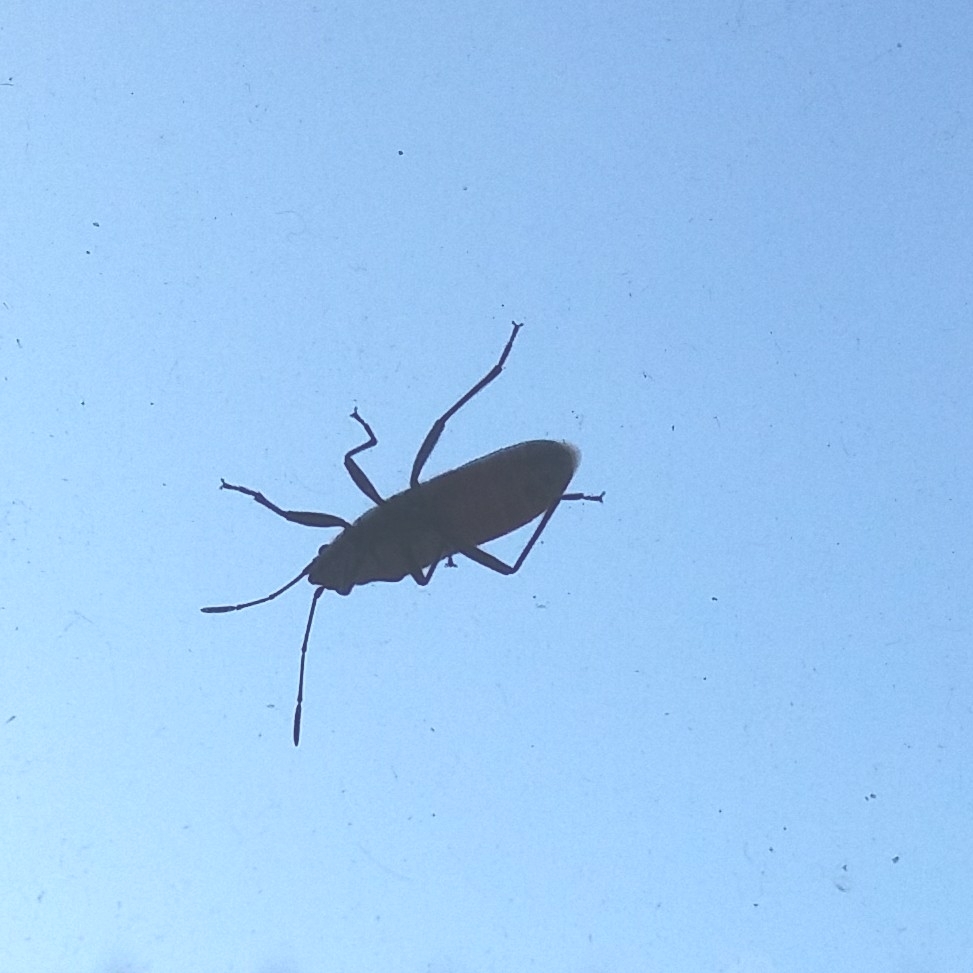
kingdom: Animalia
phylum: Arthropoda
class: Insecta
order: Hemiptera
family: Lygaeidae
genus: Arocatus
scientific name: Arocatus rusticus
